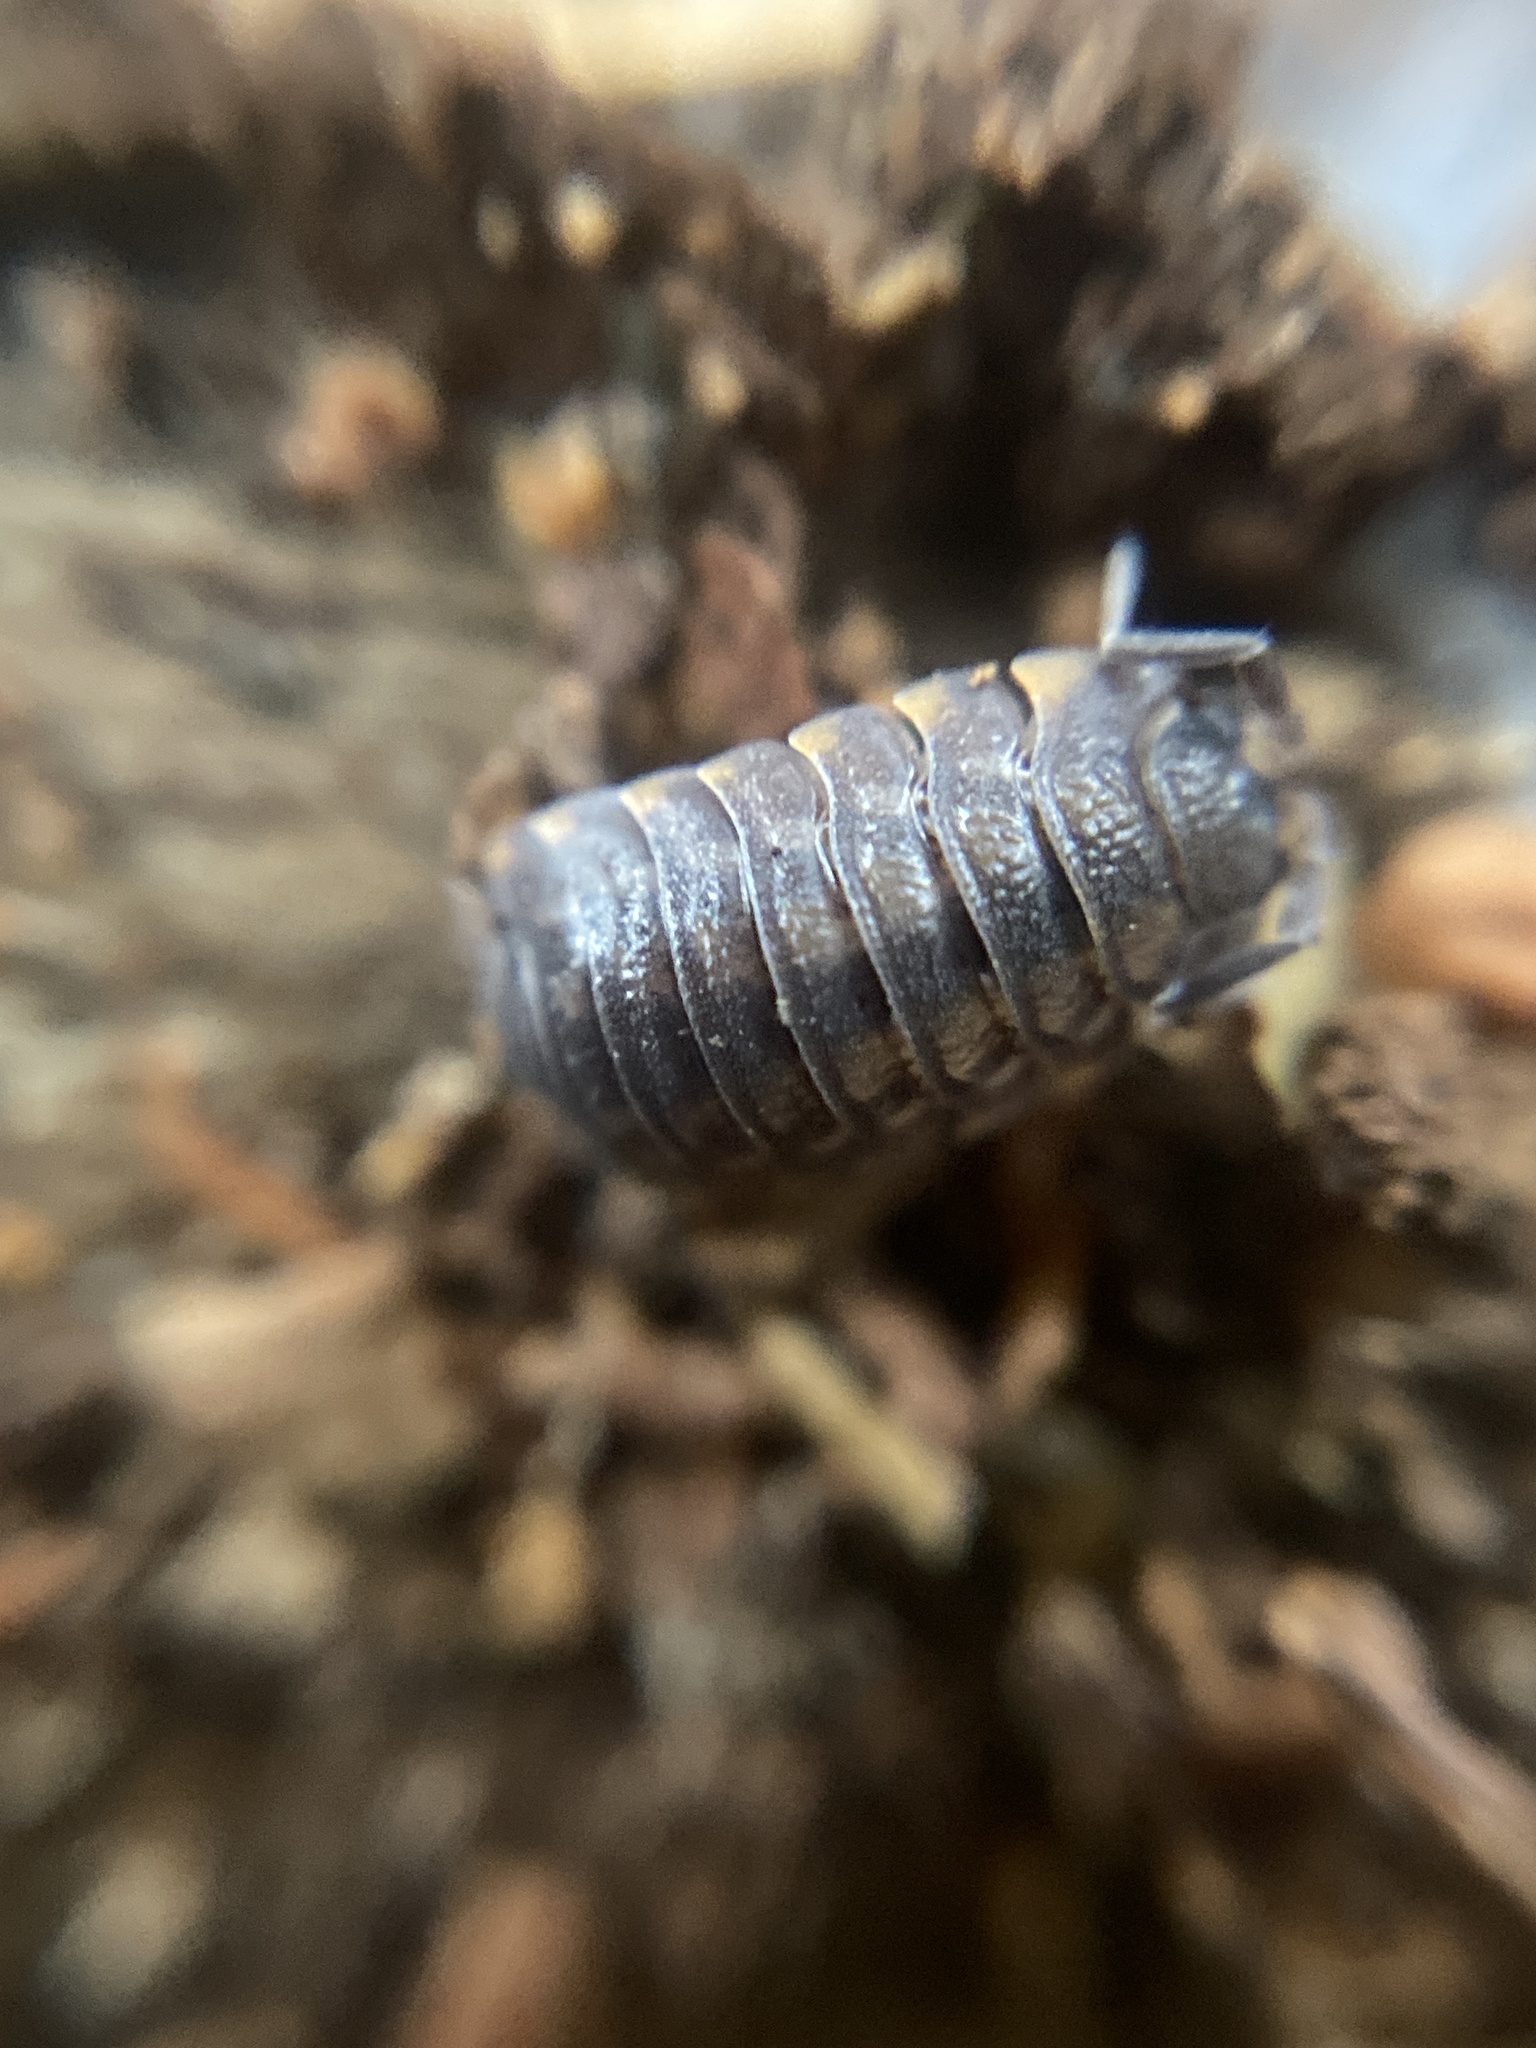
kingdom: Animalia
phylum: Arthropoda
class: Malacostraca
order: Isopoda
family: Trachelipodidae
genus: Trachelipus
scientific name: Trachelipus ratzeburgii
